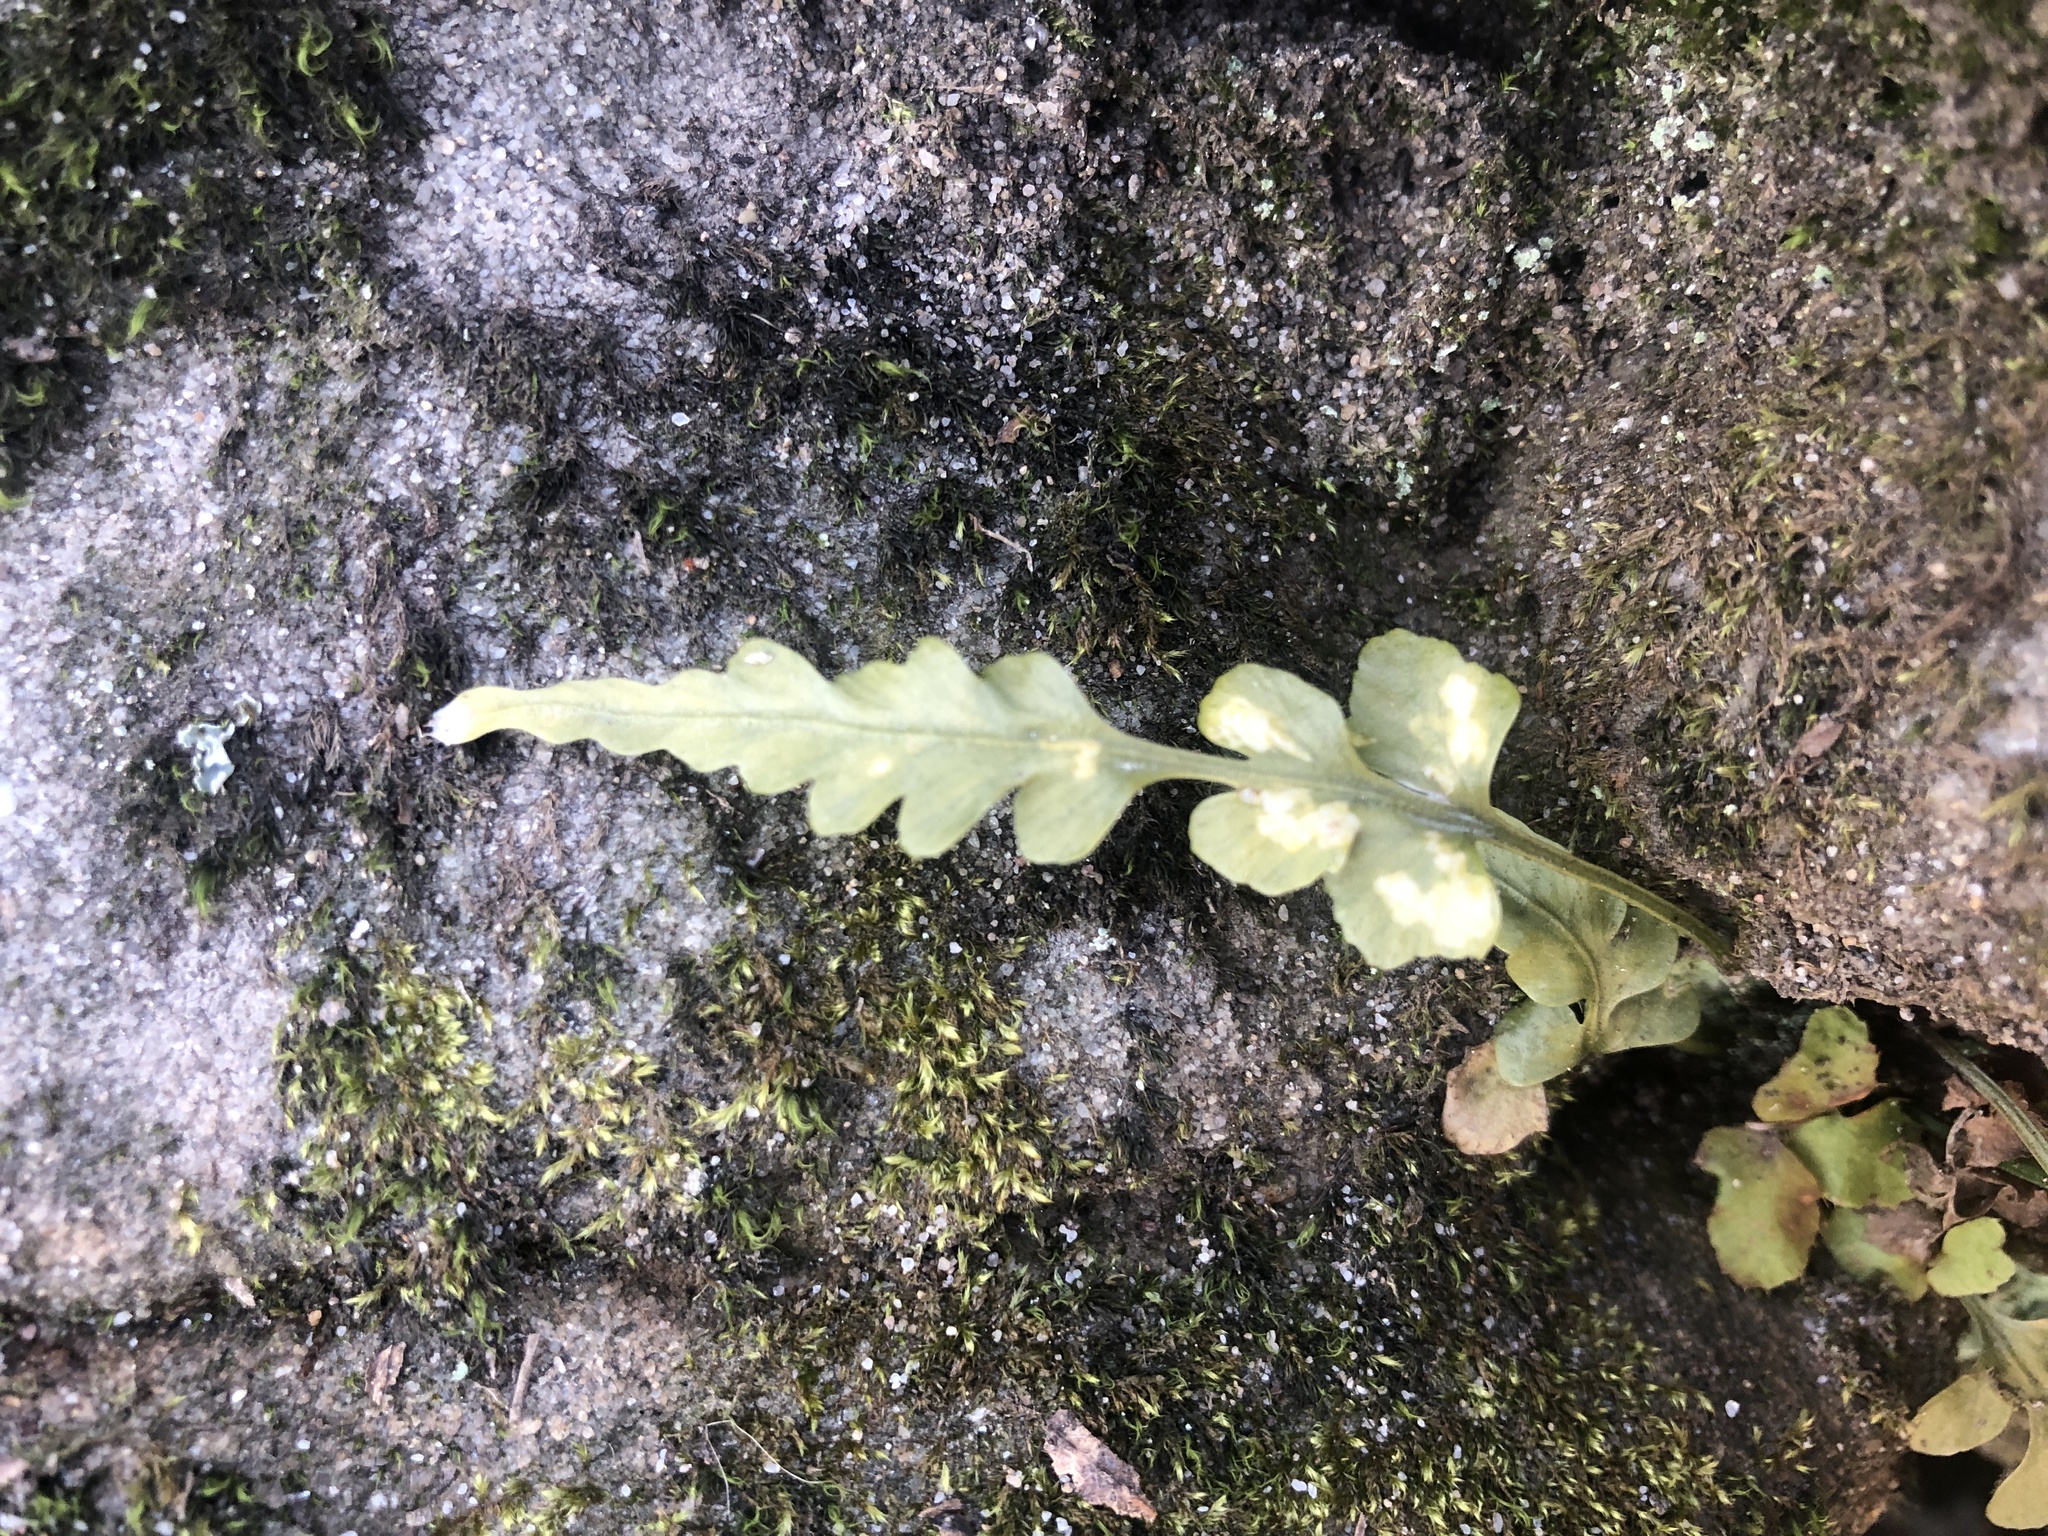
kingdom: Plantae
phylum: Tracheophyta
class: Polypodiopsida
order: Polypodiales
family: Aspleniaceae
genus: Asplenium
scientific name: Asplenium pinnatifidum
